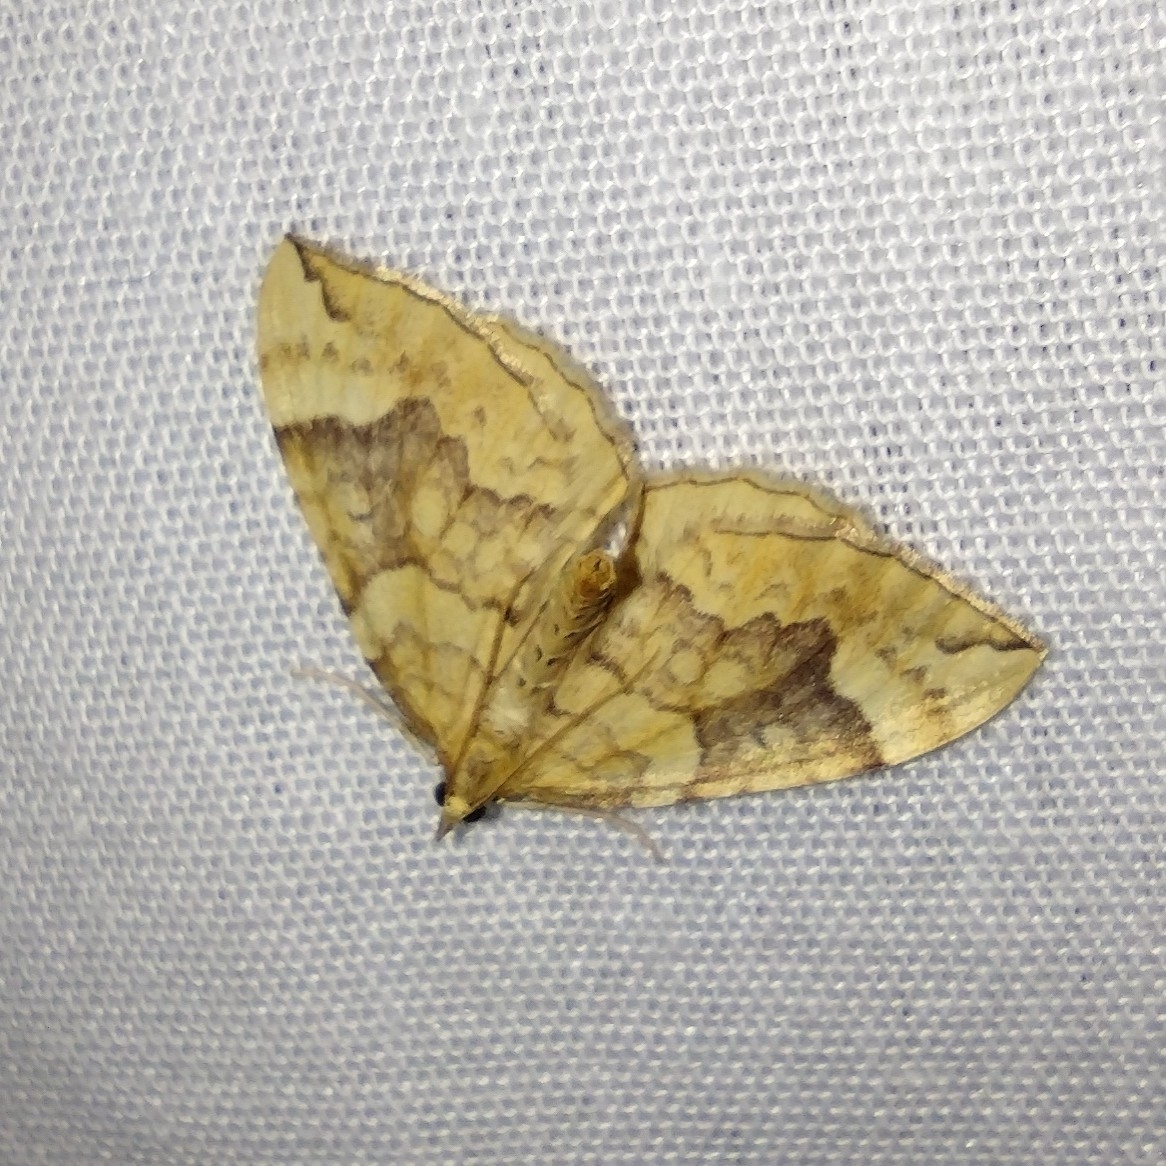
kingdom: Animalia
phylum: Arthropoda
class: Insecta
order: Lepidoptera
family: Geometridae
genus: Eulithis
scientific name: Eulithis populata
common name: Northern spinach
